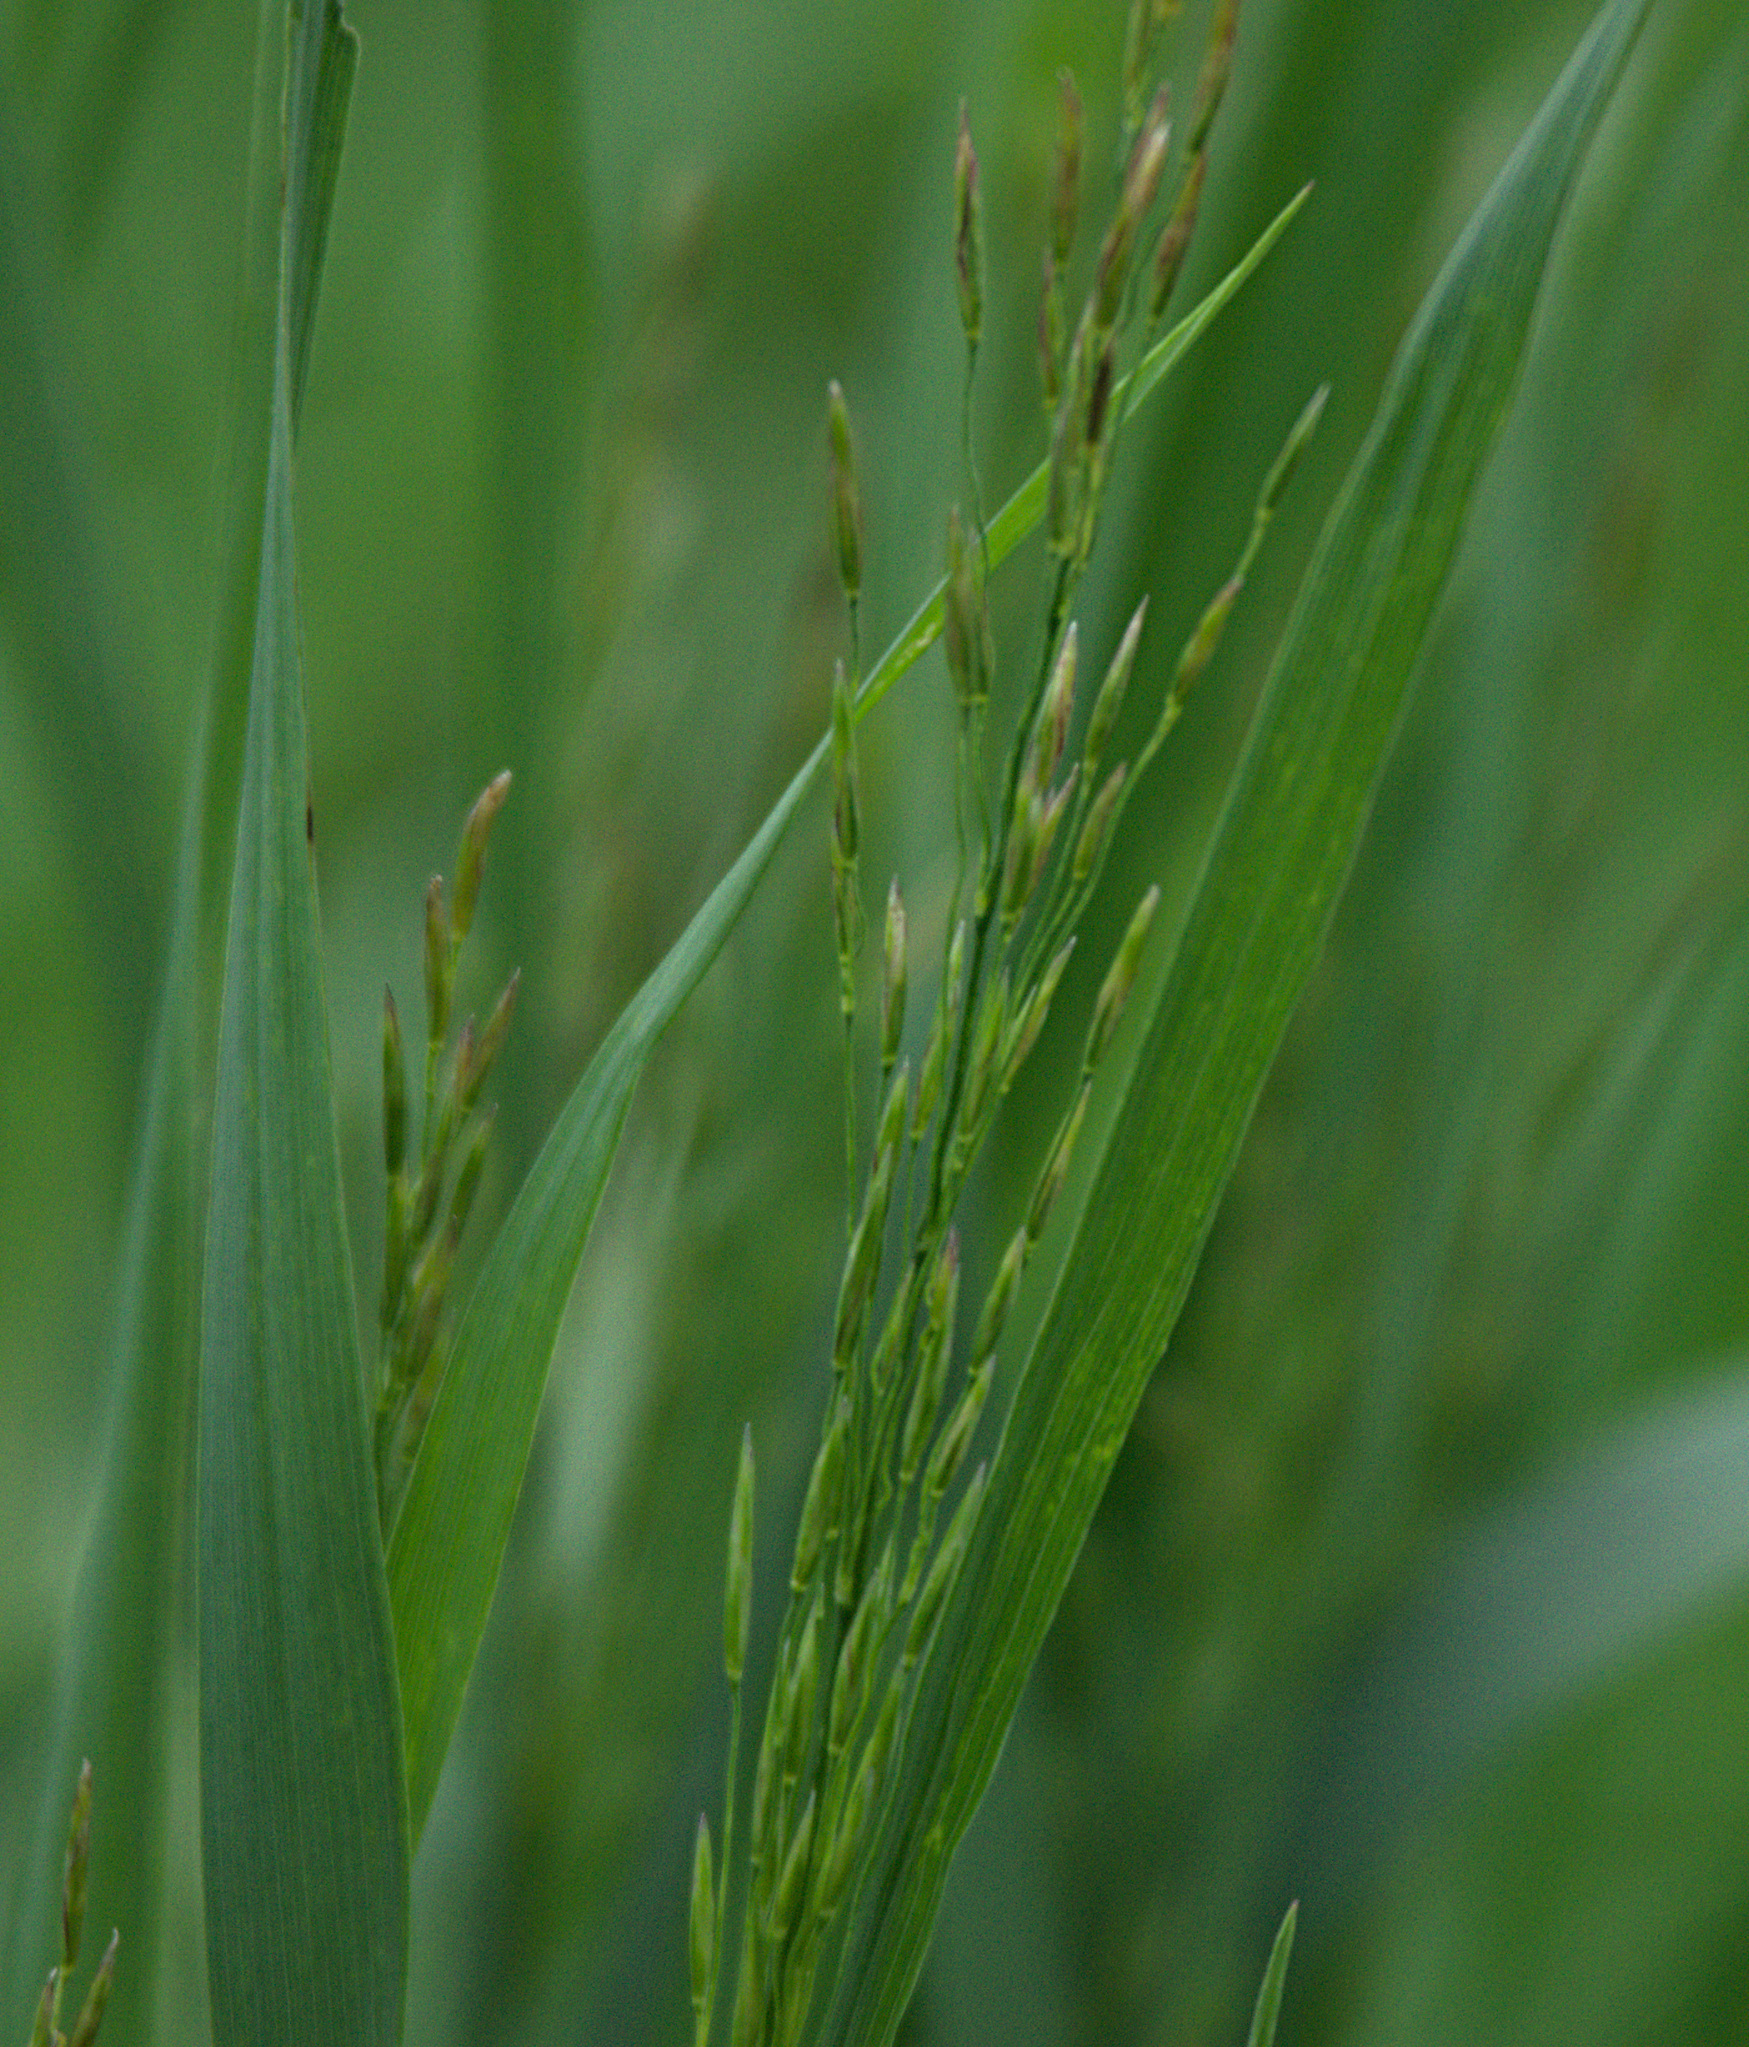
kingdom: Plantae
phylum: Tracheophyta
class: Liliopsida
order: Poales
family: Poaceae
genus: Bromus
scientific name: Bromus inermis
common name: Smooth brome
